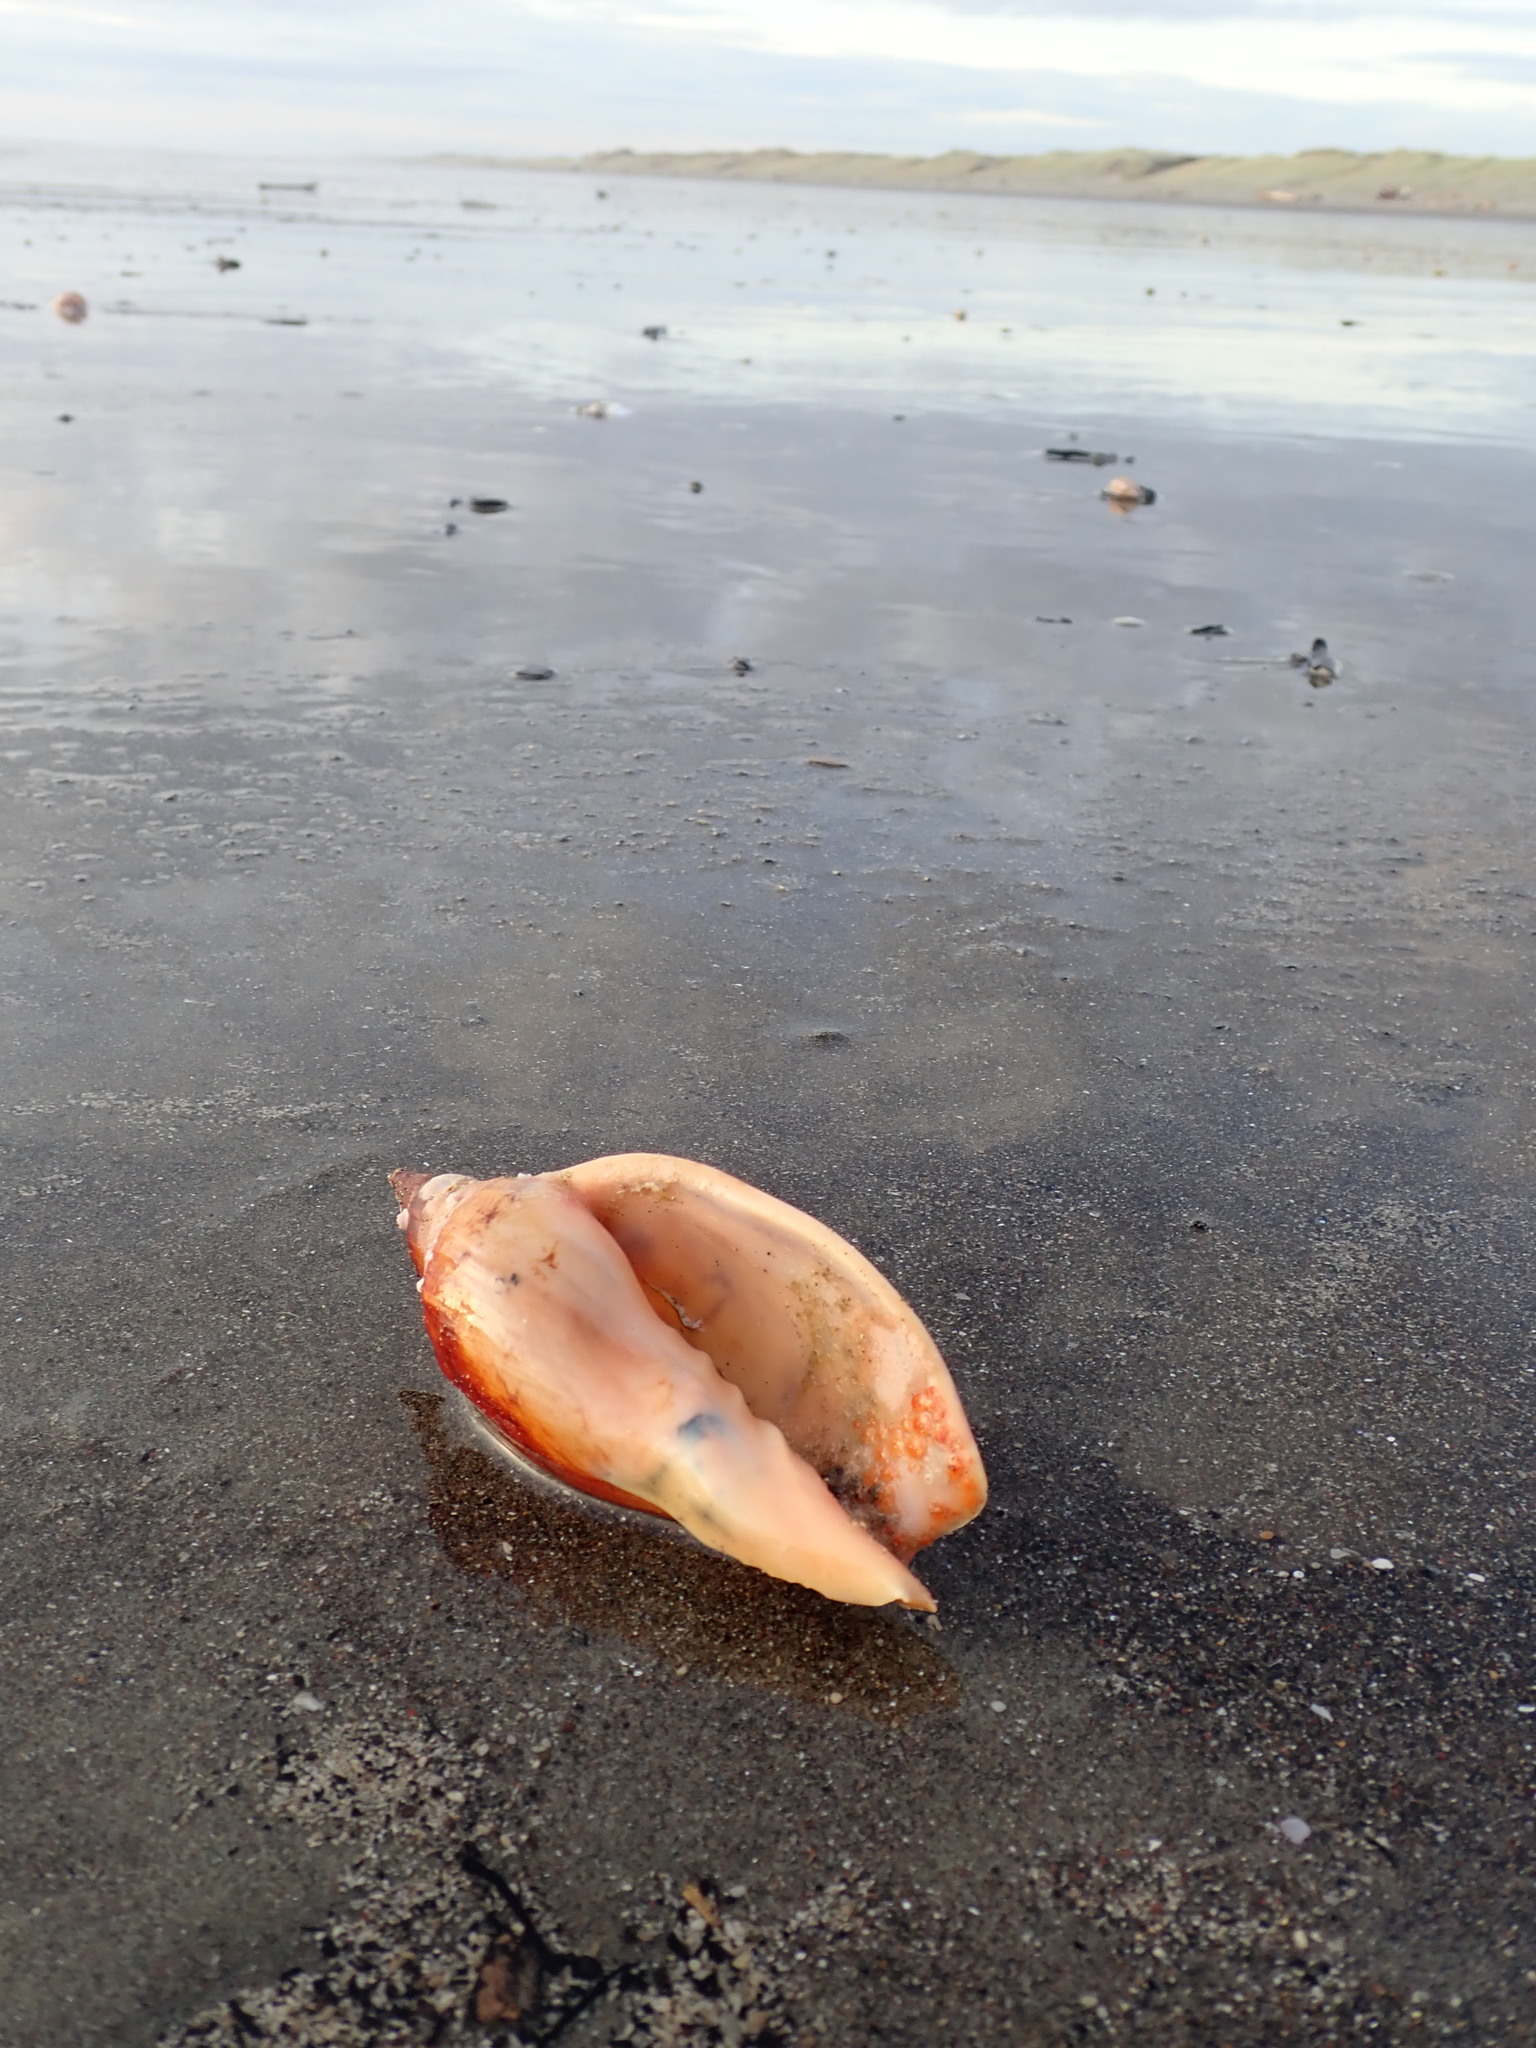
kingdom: Animalia
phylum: Mollusca
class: Gastropoda
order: Neogastropoda
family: Volutidae
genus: Alcithoe
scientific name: Alcithoe arabica
